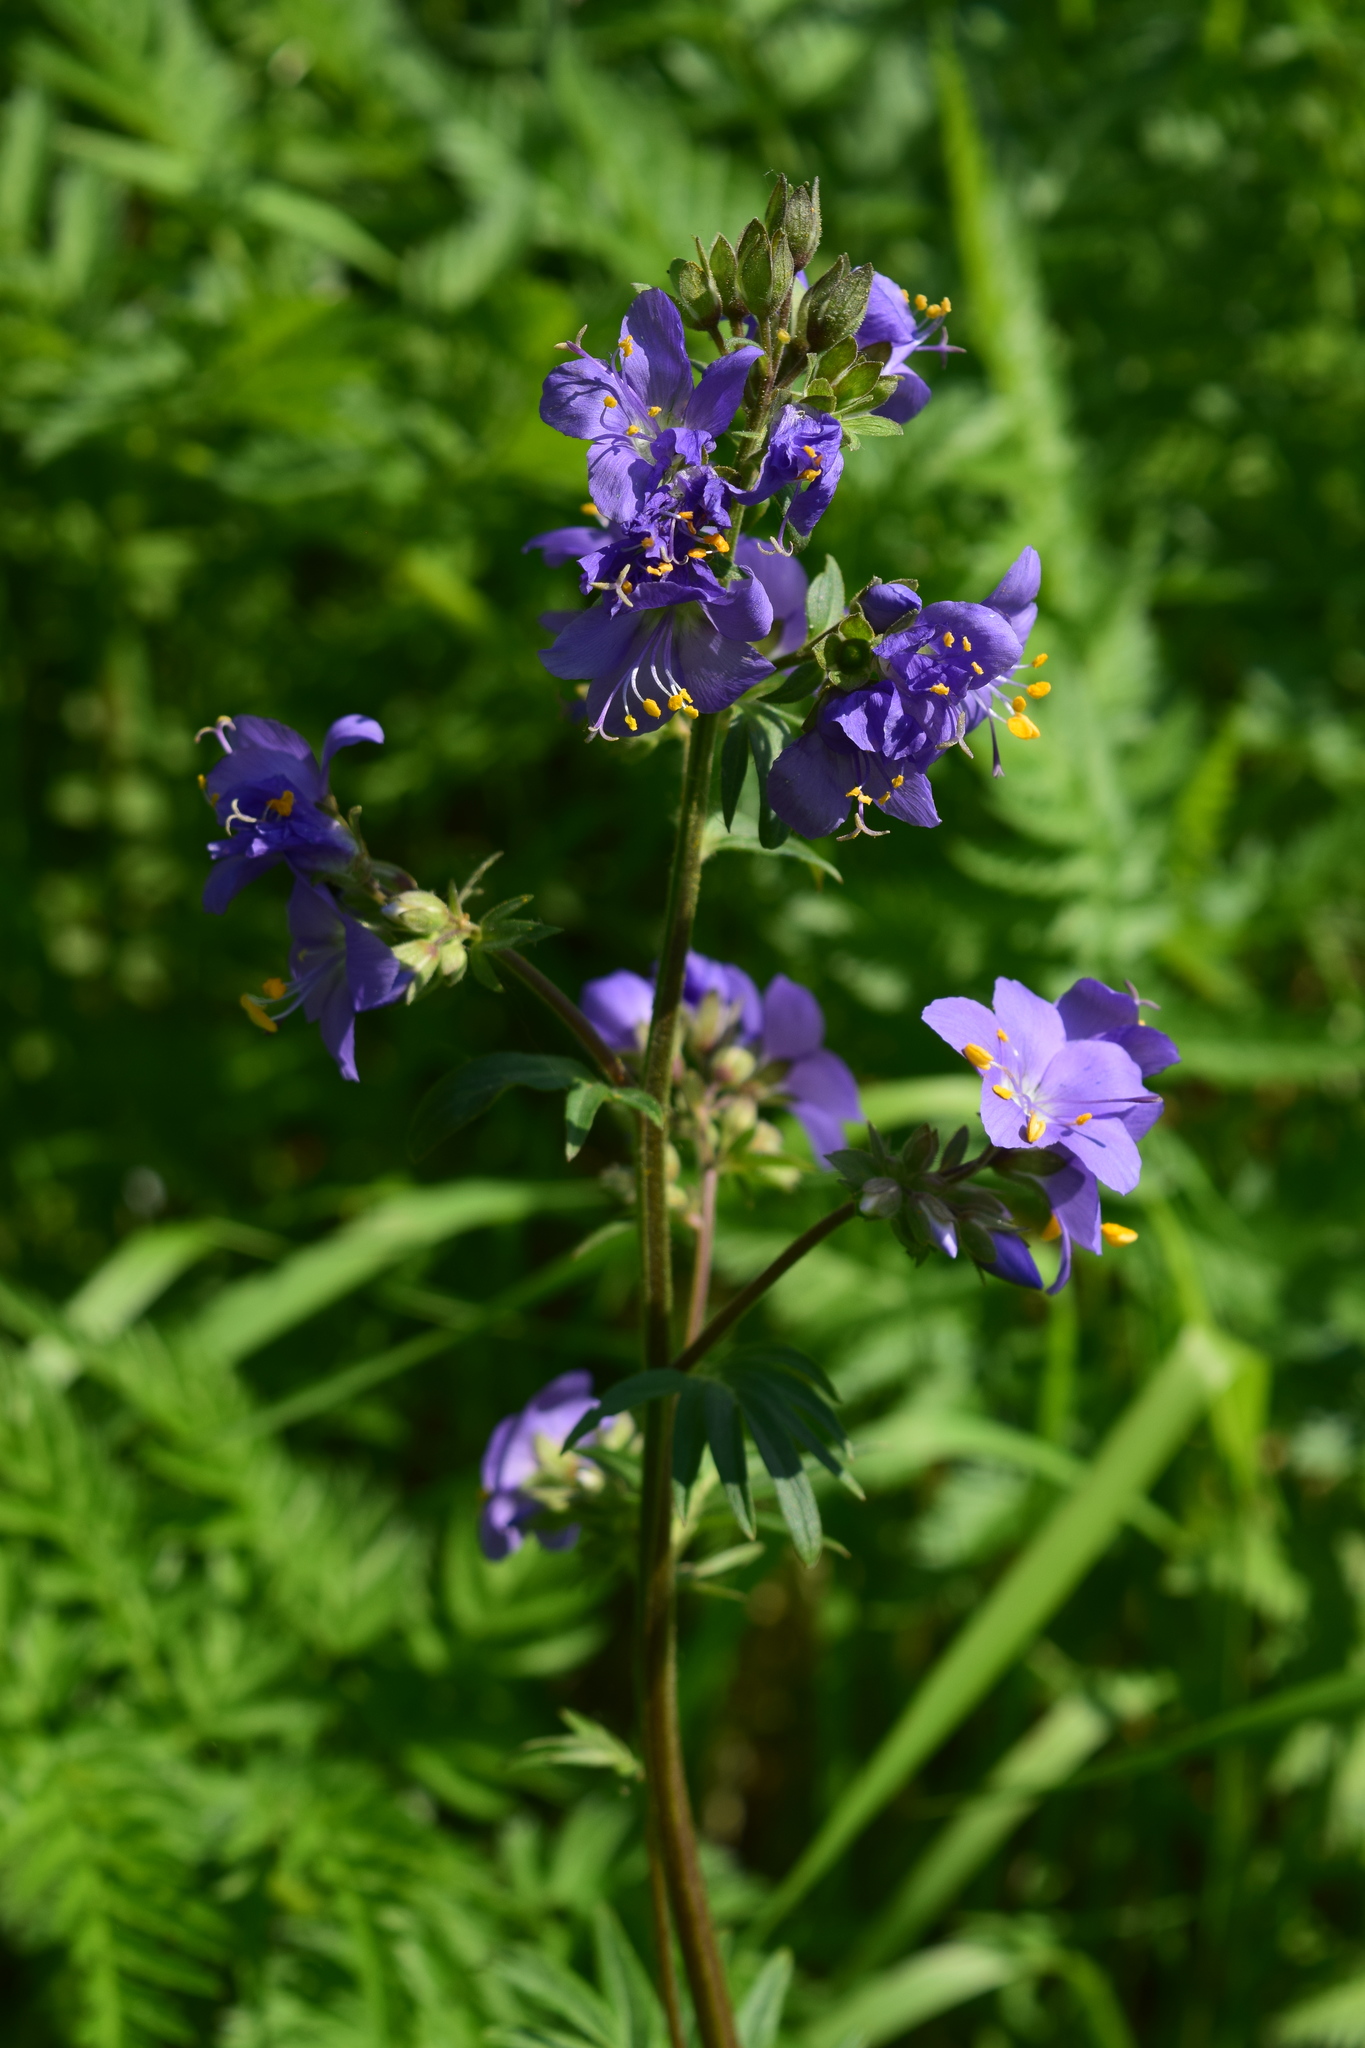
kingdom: Plantae
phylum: Tracheophyta
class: Magnoliopsida
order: Ericales
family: Polemoniaceae
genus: Polemonium
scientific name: Polemonium caeruleum
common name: Jacob's-ladder
